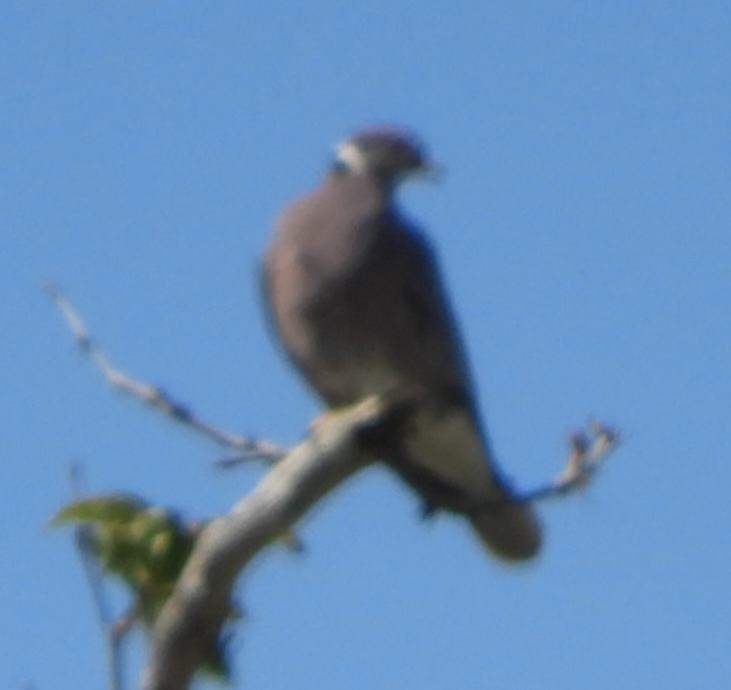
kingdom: Animalia
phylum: Chordata
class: Aves
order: Columbiformes
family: Columbidae
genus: Patagioenas
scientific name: Patagioenas fasciata
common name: Band-tailed pigeon
